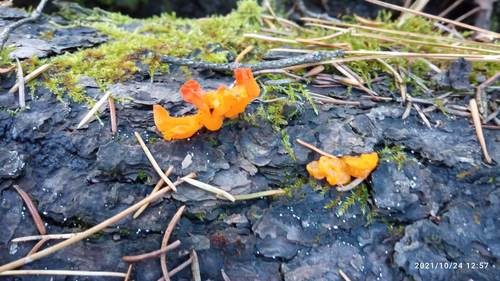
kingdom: Fungi
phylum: Basidiomycota
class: Dacrymycetes
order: Dacrymycetales
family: Dacrymycetaceae
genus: Dacrymyces
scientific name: Dacrymyces chrysospermus
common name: Orange jelly spot
